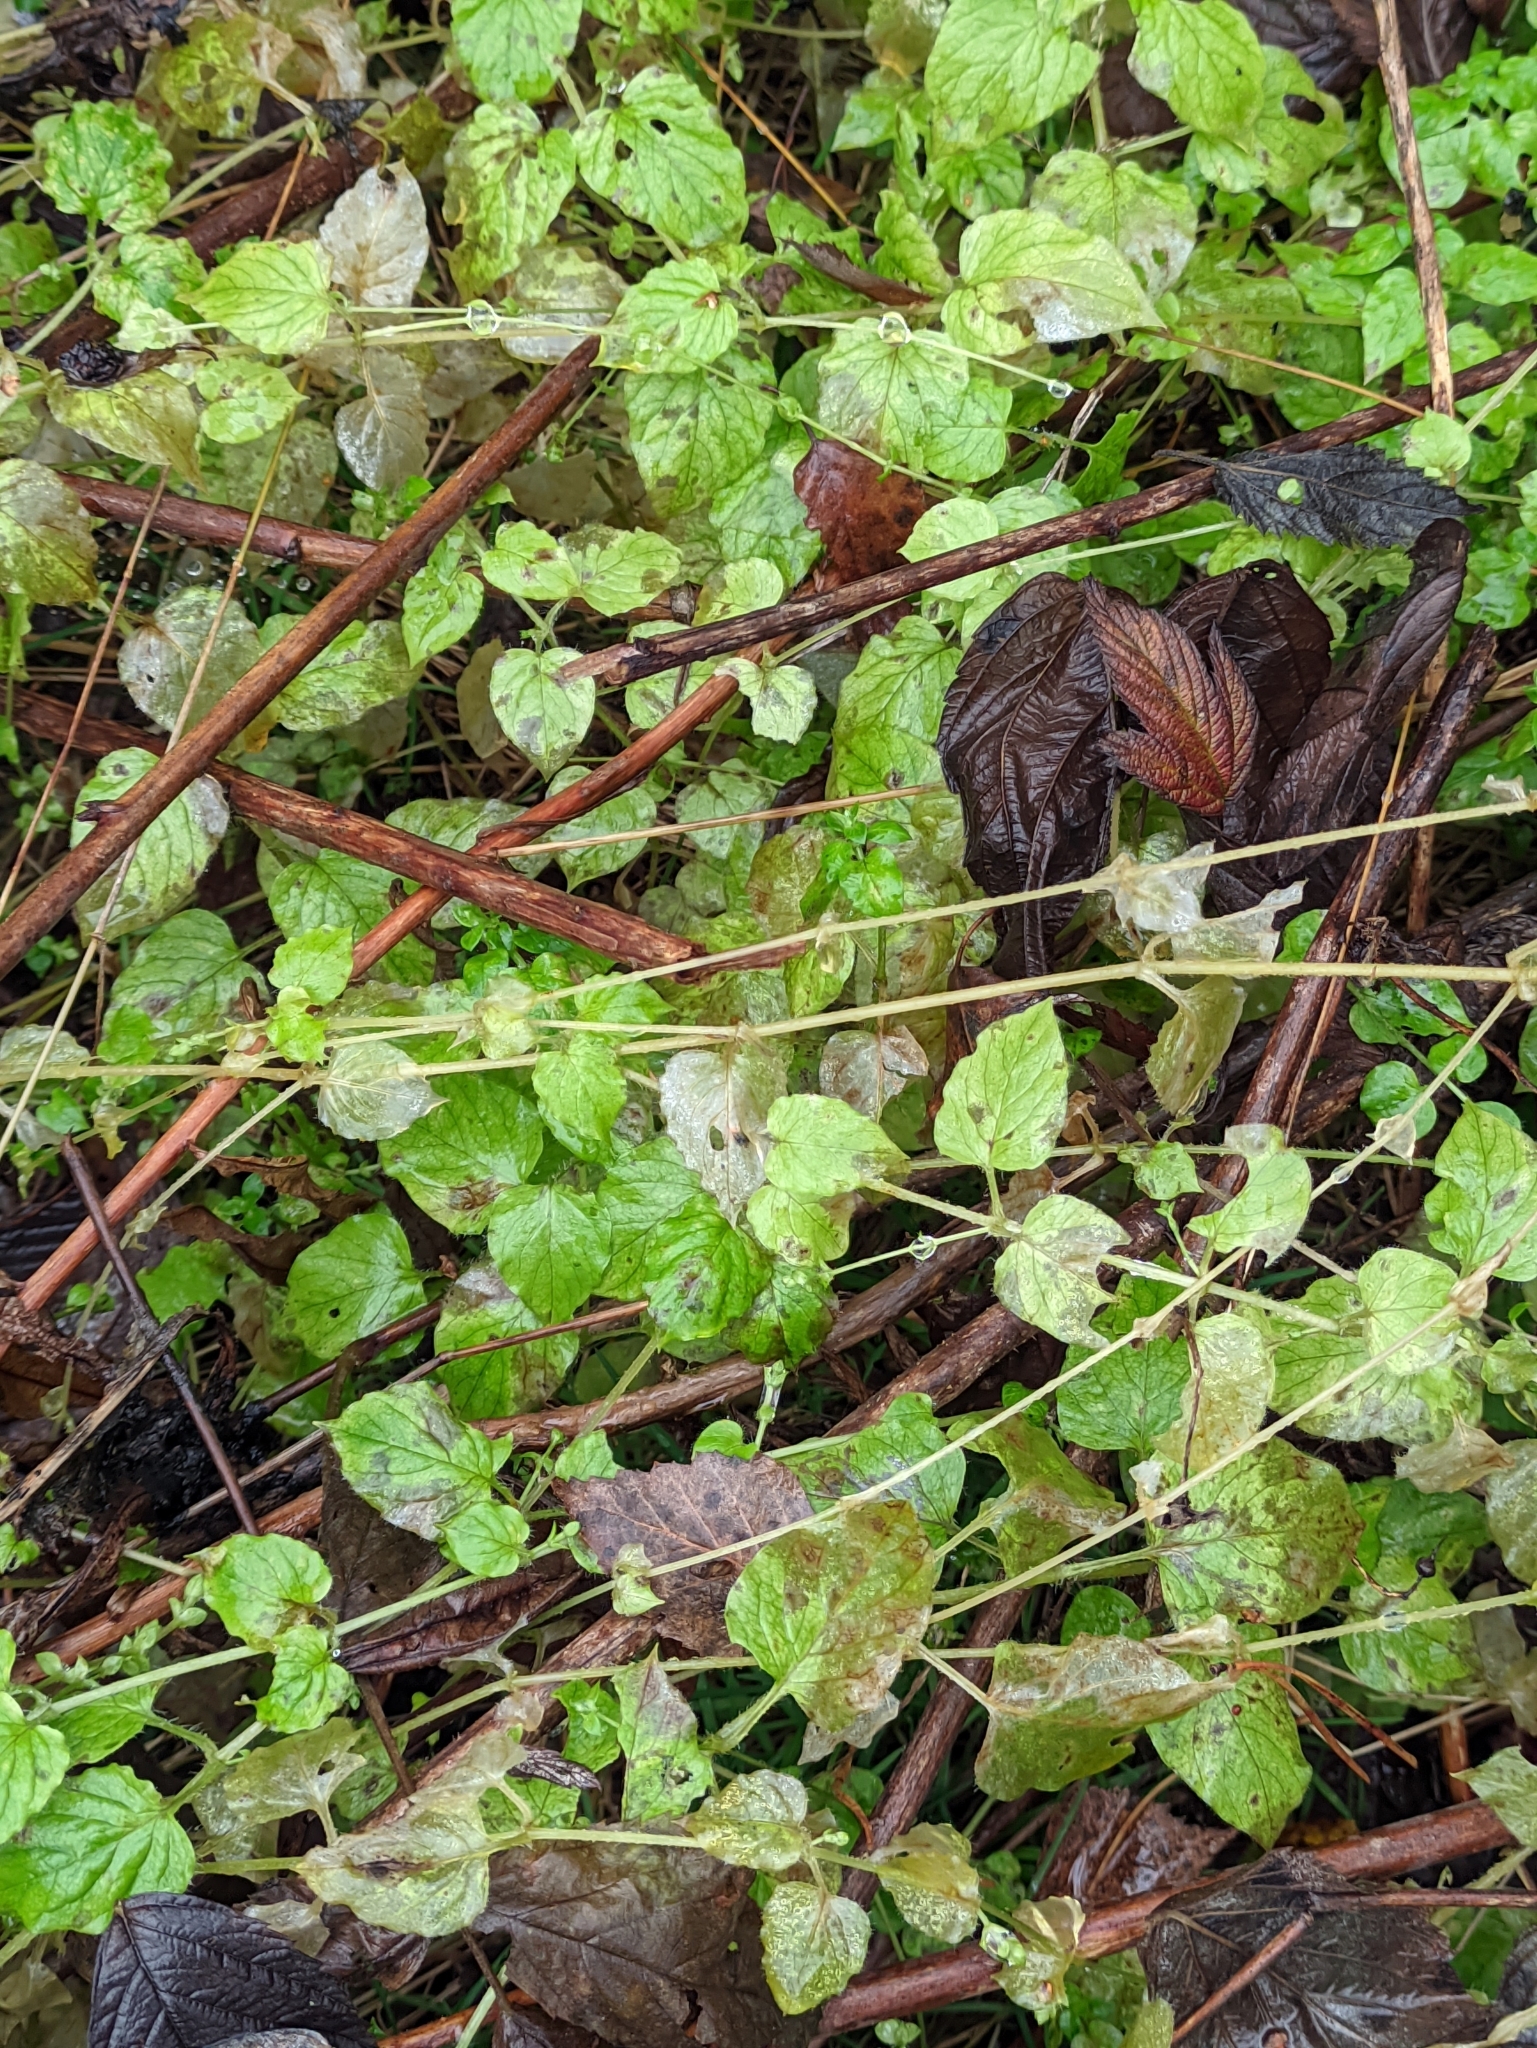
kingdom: Plantae
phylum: Tracheophyta
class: Magnoliopsida
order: Caryophyllales
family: Caryophyllaceae
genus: Stellaria
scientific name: Stellaria nemorum
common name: Wood stitchwort
